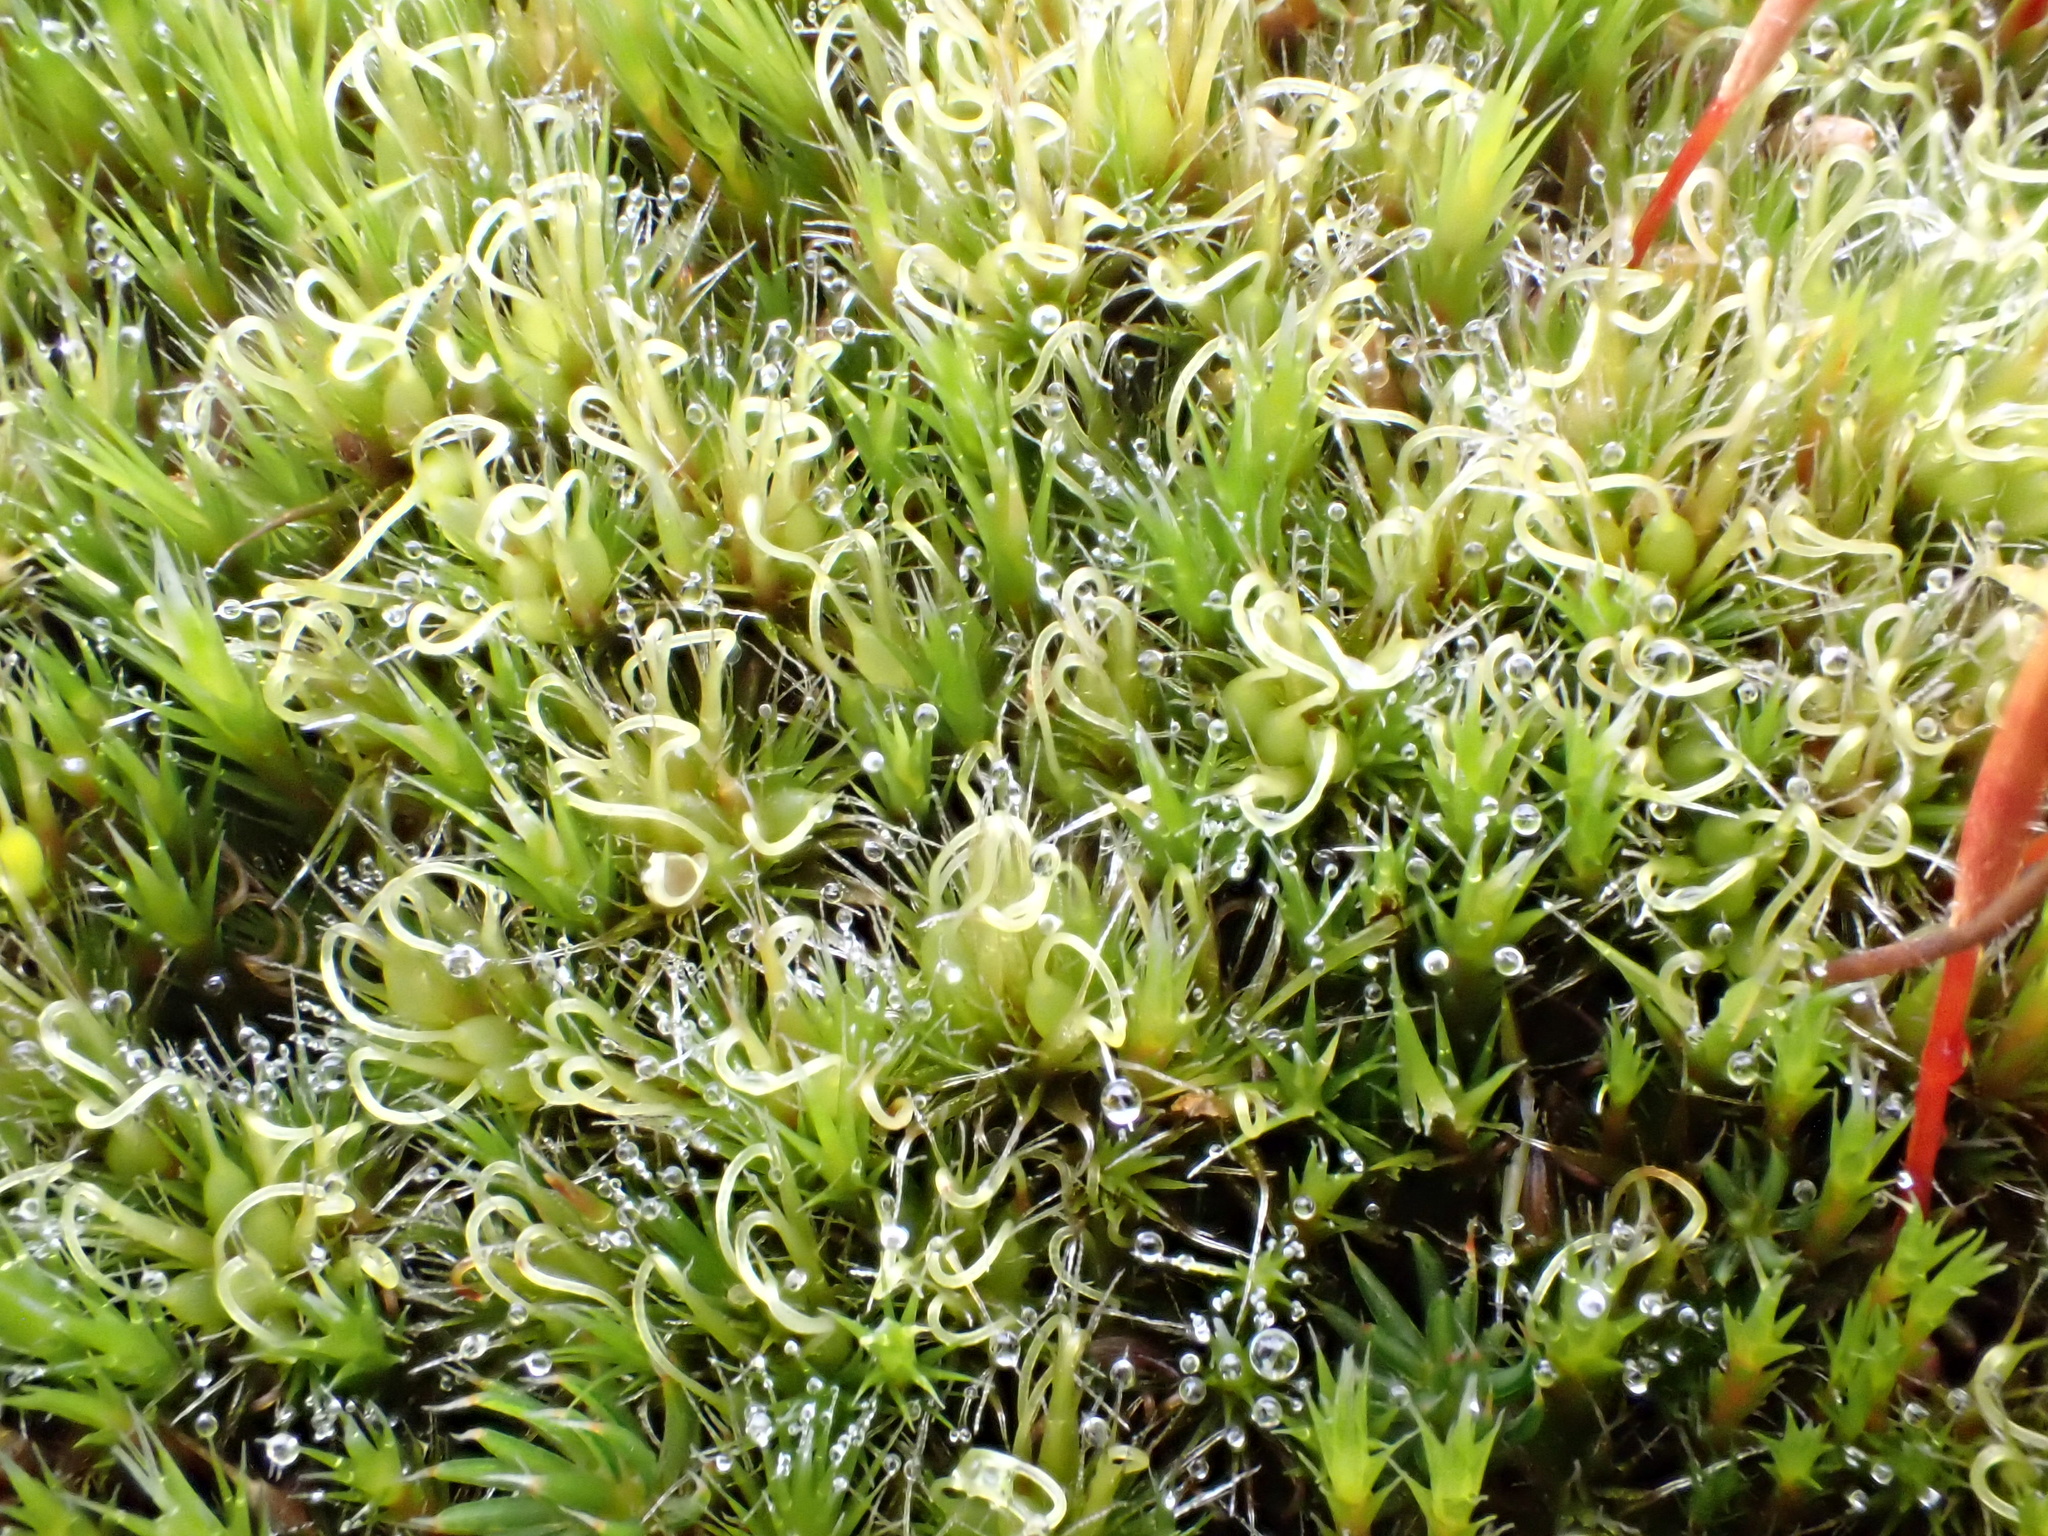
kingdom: Plantae
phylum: Bryophyta
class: Bryopsida
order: Dicranales
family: Leucobryaceae
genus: Campylopus
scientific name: Campylopus introflexus
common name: Heath star moss
